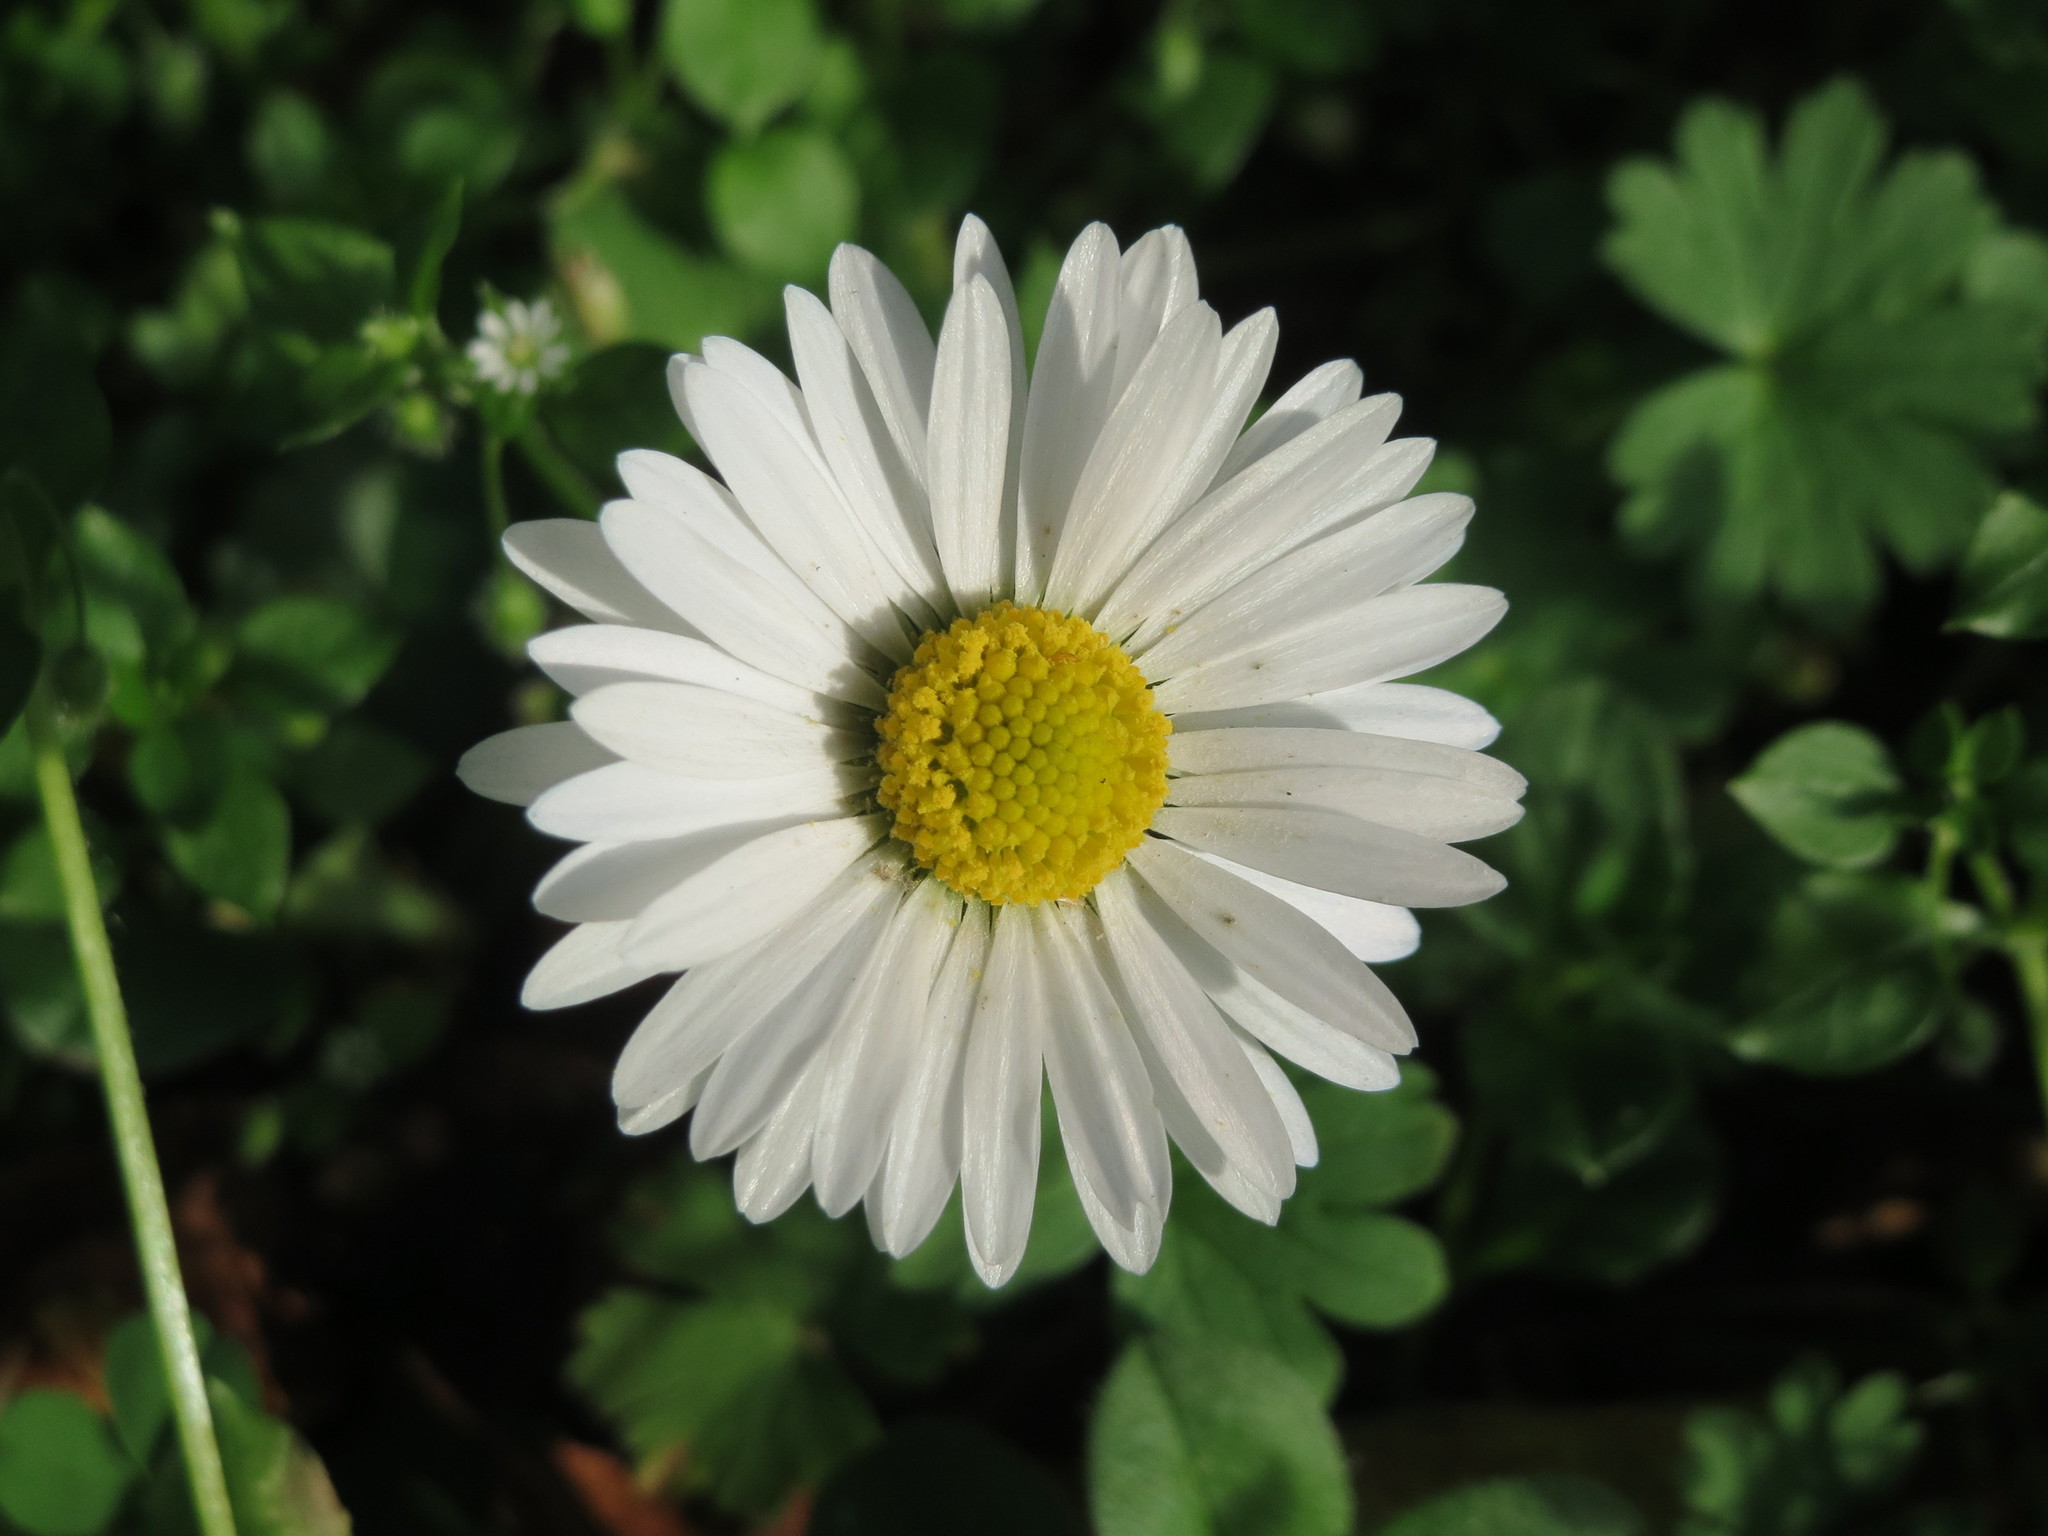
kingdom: Plantae
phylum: Tracheophyta
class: Magnoliopsida
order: Asterales
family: Asteraceae
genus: Bellis
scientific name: Bellis perennis
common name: Lawndaisy
